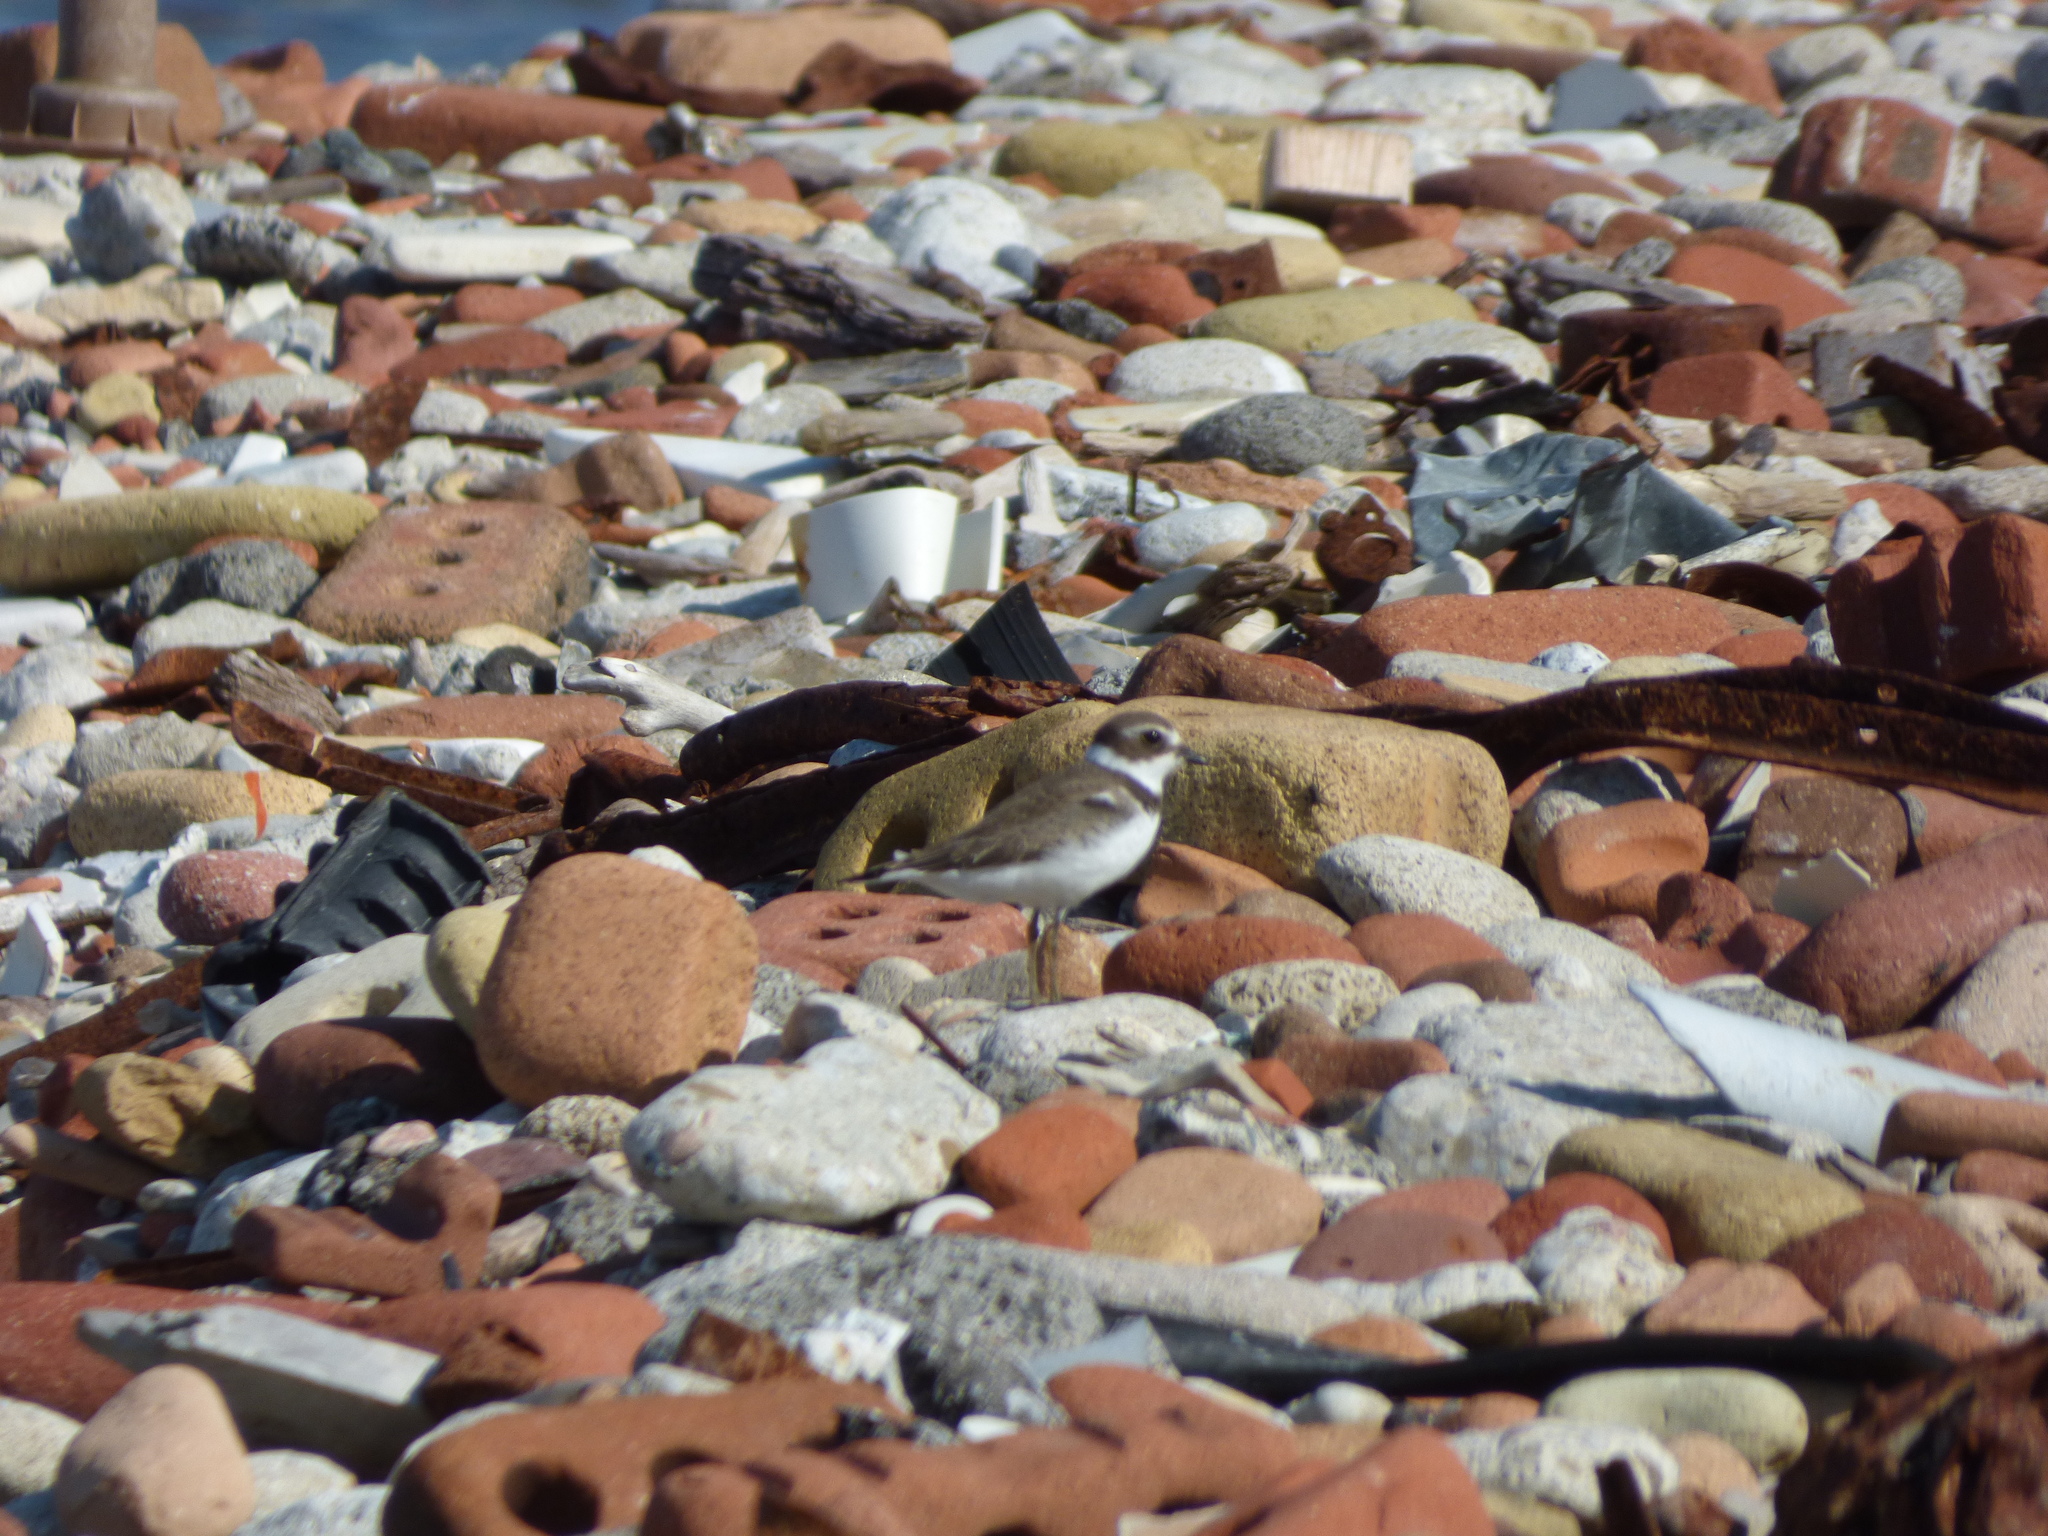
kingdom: Animalia
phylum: Chordata
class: Aves
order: Charadriiformes
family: Charadriidae
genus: Charadrius
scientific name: Charadrius semipalmatus
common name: Semipalmated plover
